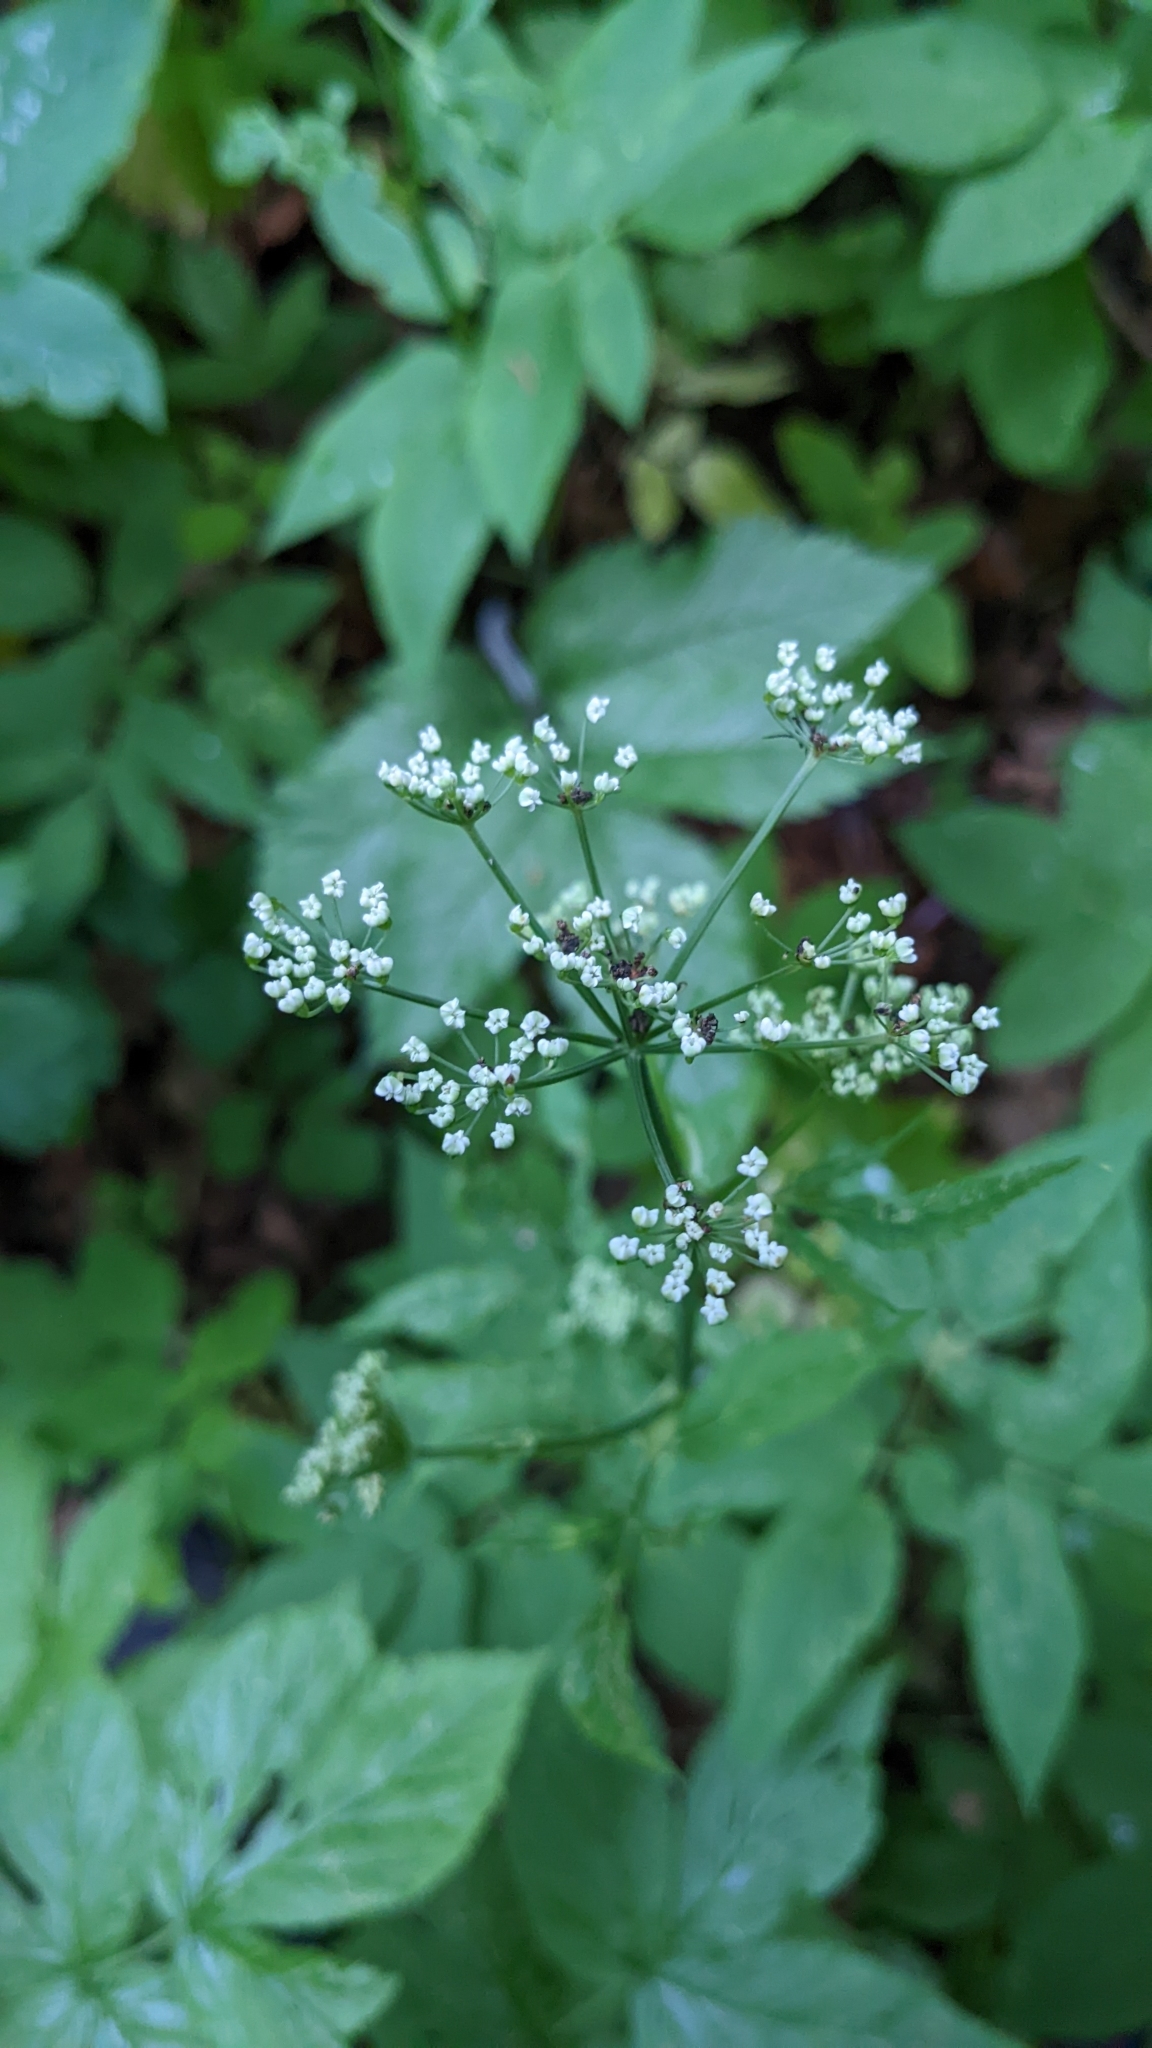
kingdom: Plantae
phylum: Tracheophyta
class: Magnoliopsida
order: Apiales
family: Apiaceae
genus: Aegopodium
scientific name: Aegopodium podagraria
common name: Ground-elder
